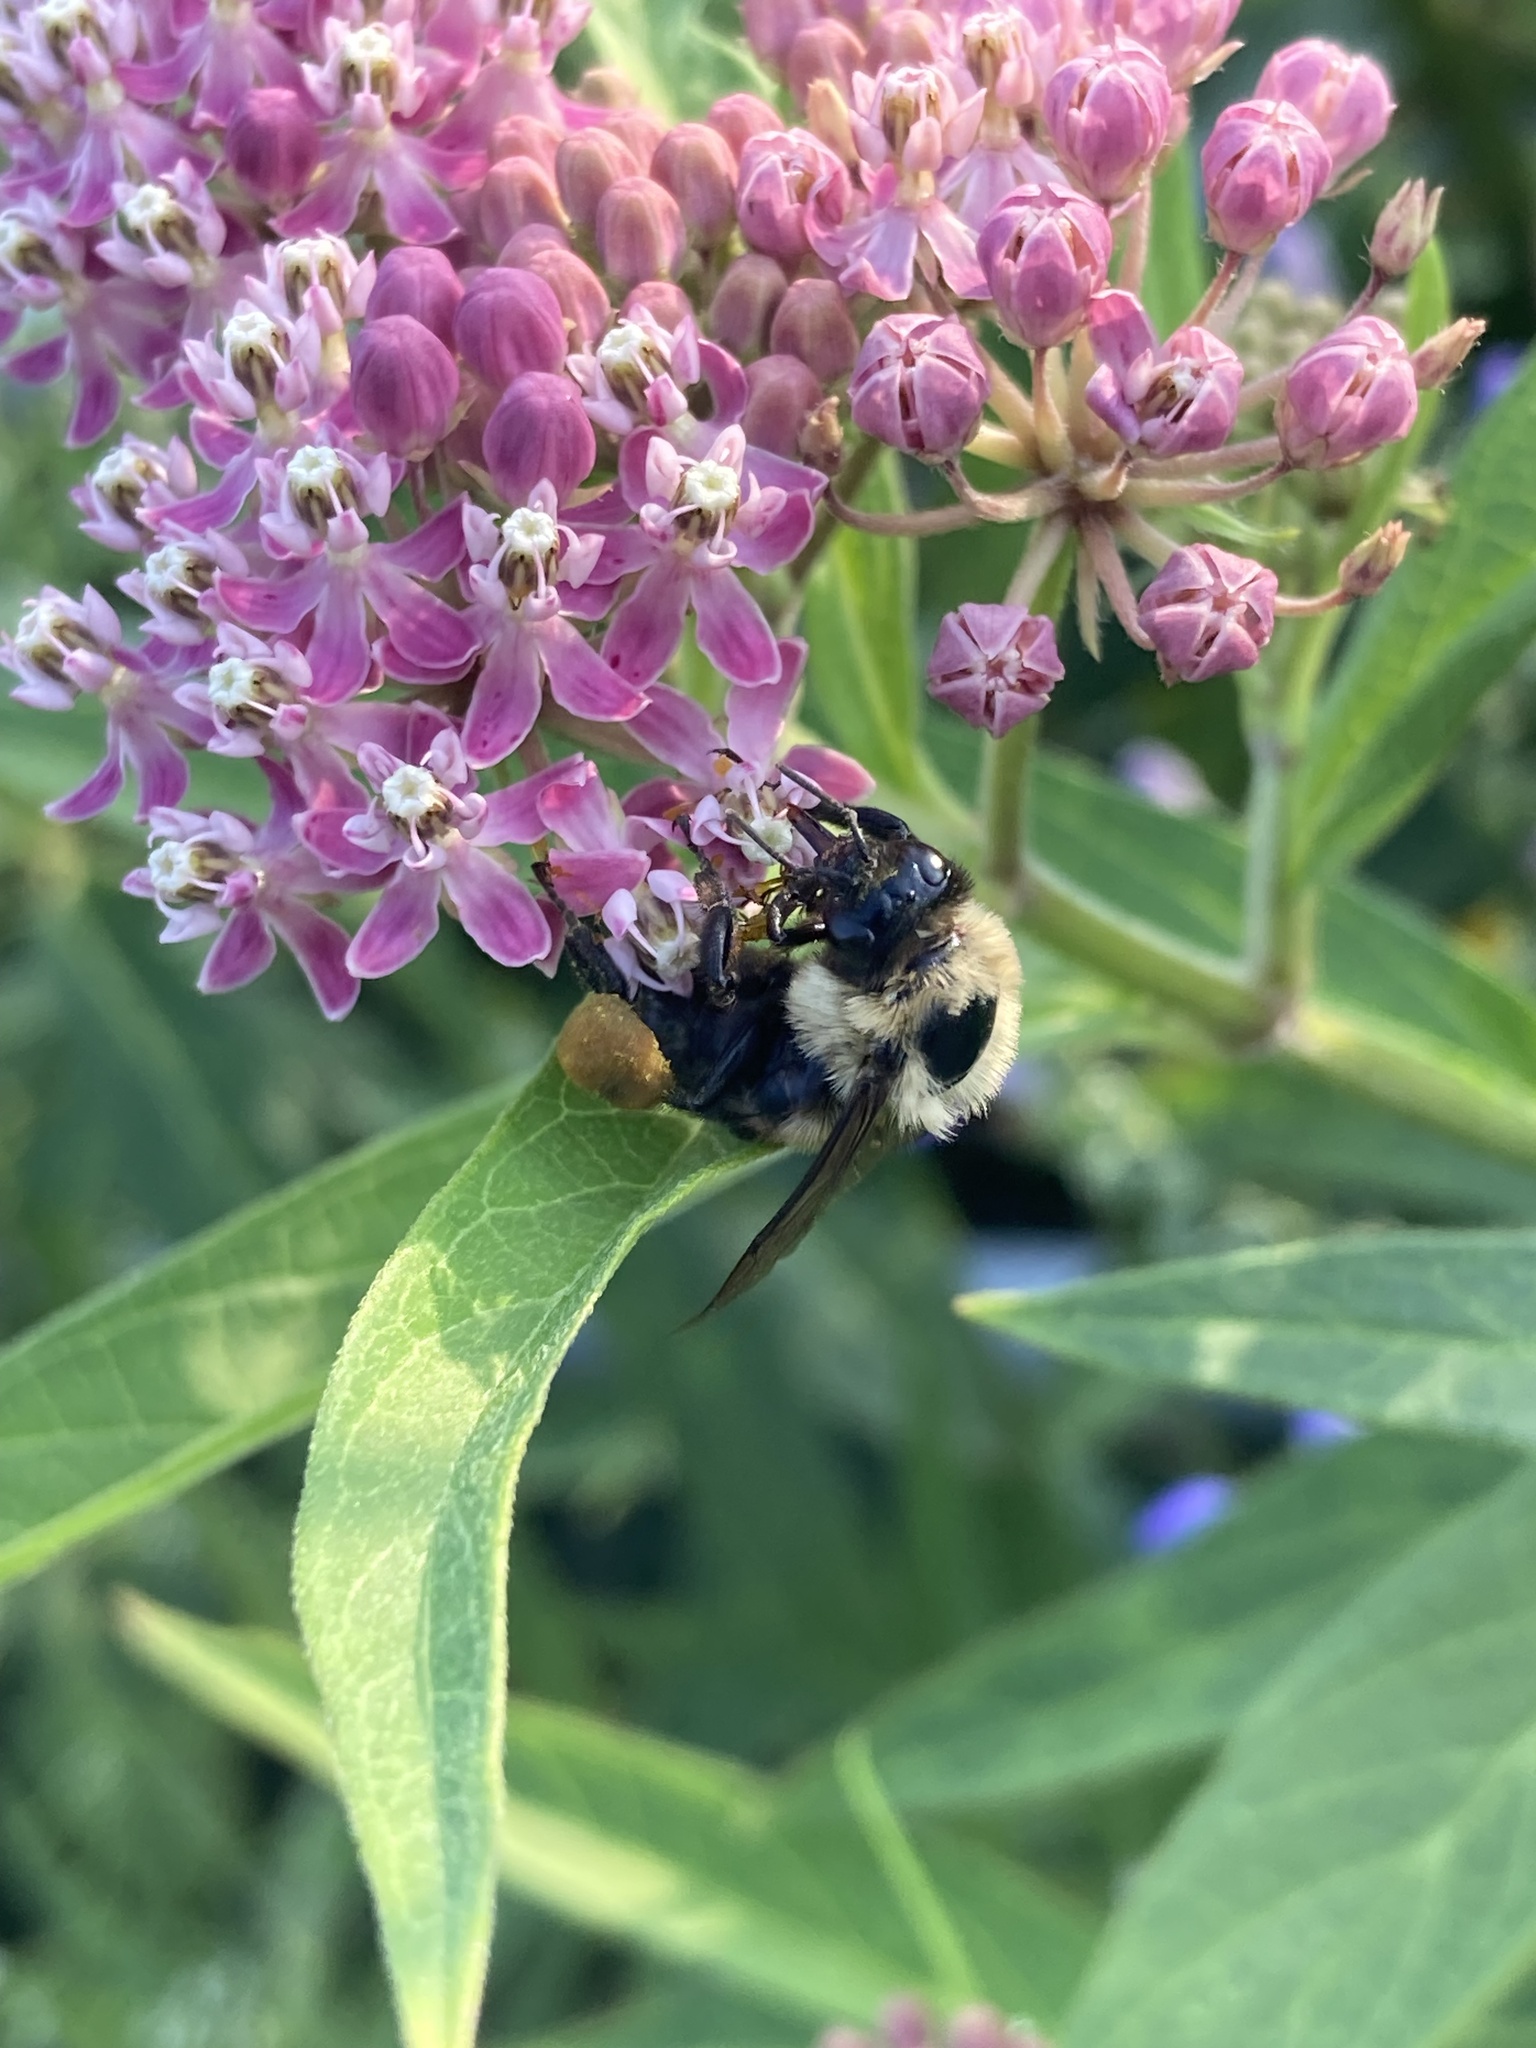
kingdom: Animalia
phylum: Arthropoda
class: Insecta
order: Hymenoptera
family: Apidae
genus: Bombus
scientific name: Bombus griseocollis
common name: Brown-belted bumble bee
